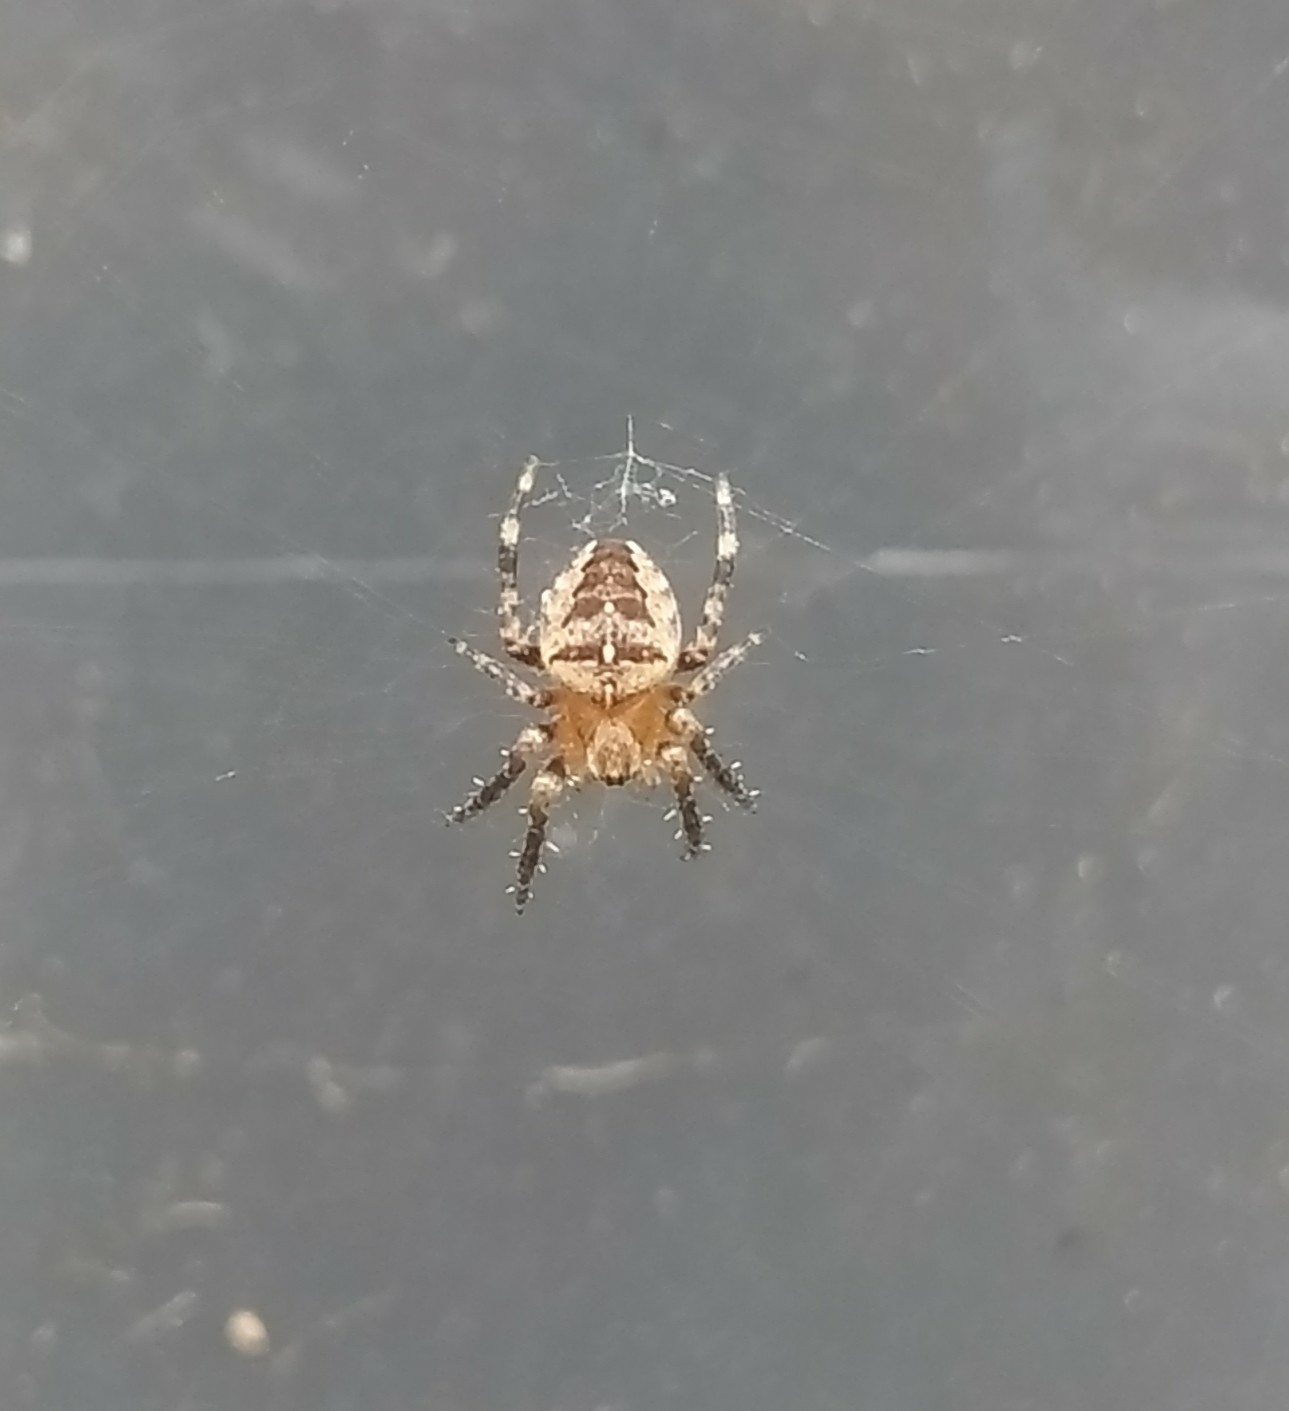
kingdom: Animalia
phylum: Arthropoda
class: Arachnida
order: Araneae
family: Araneidae
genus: Araneus
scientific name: Araneus diadematus
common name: Cross orbweaver
